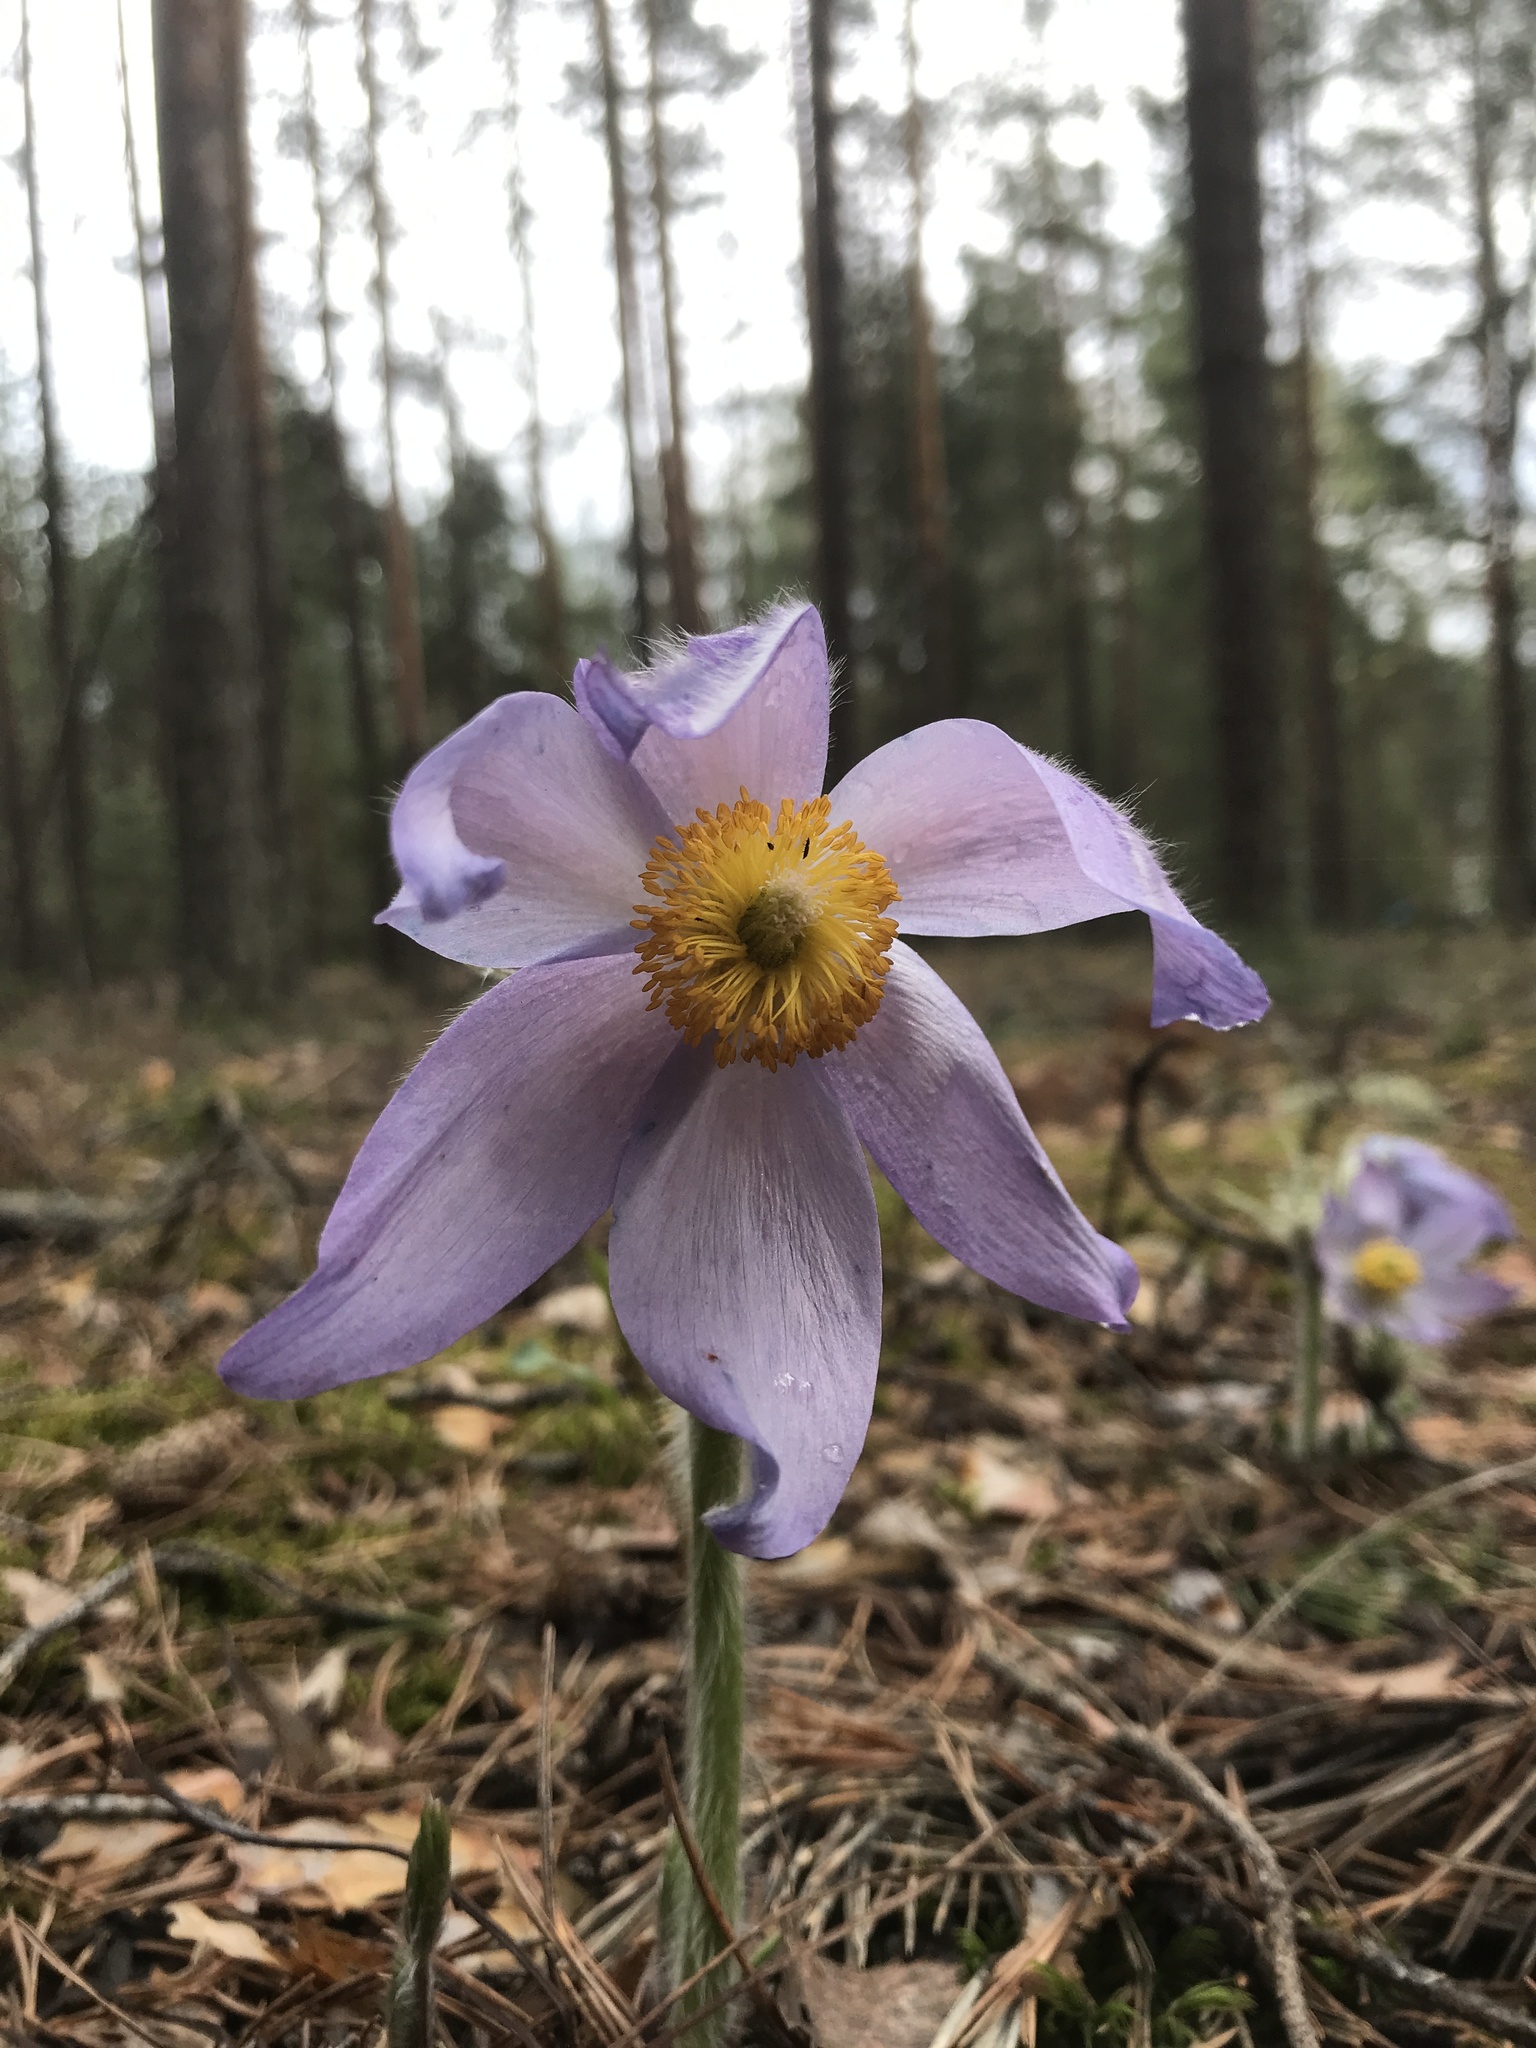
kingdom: Plantae
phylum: Tracheophyta
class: Magnoliopsida
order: Ranunculales
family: Ranunculaceae
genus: Pulsatilla
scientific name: Pulsatilla patens
